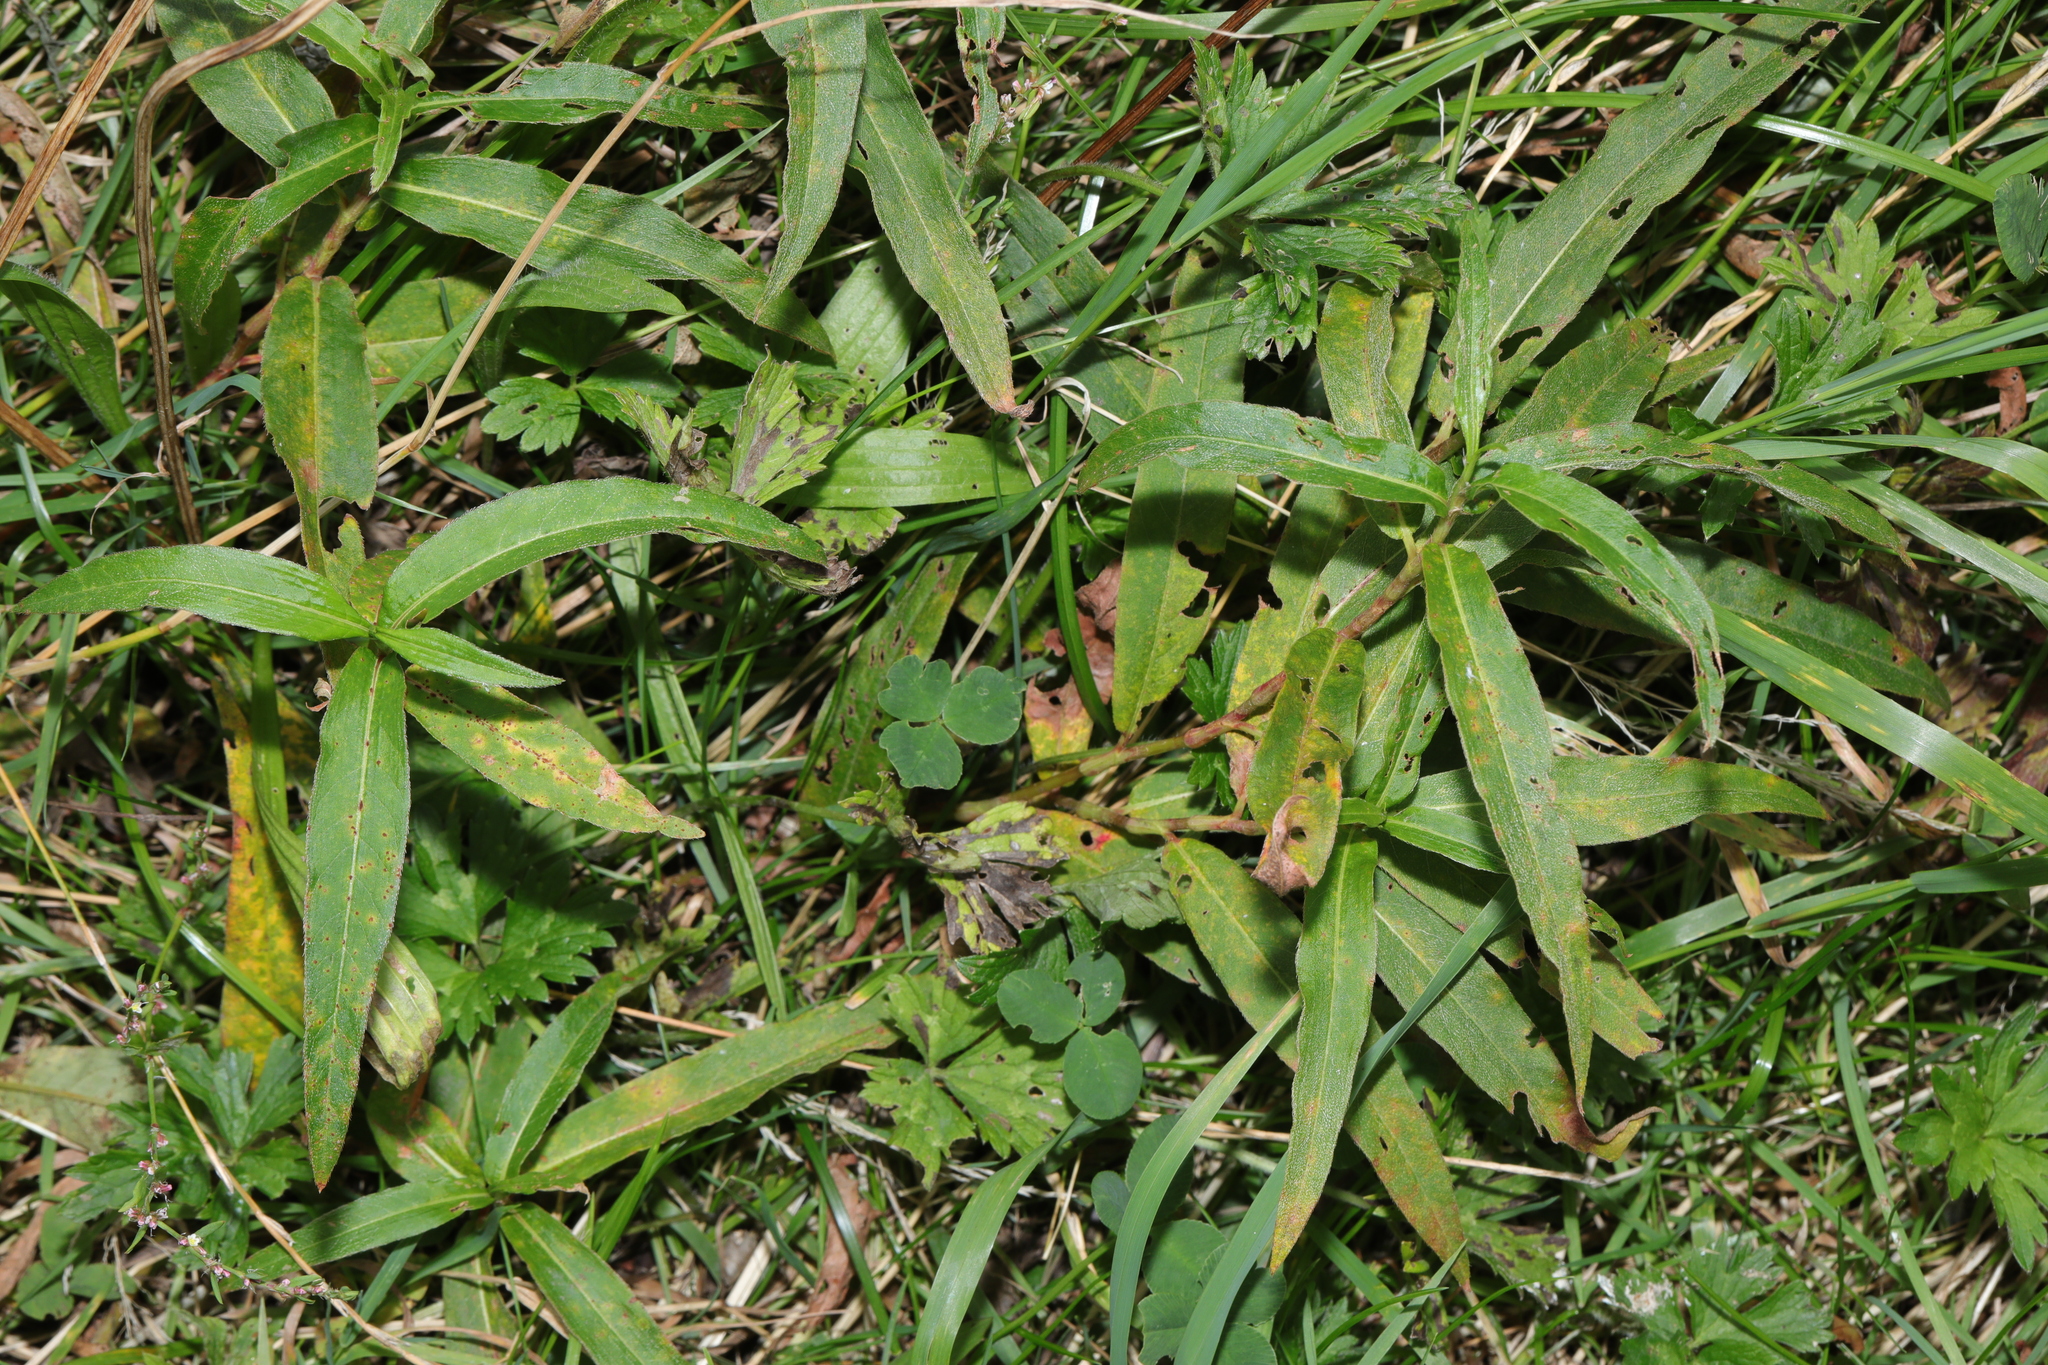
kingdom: Plantae
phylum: Tracheophyta
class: Magnoliopsida
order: Caryophyllales
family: Polygonaceae
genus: Persicaria
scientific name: Persicaria amphibia
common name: Amphibious bistort
